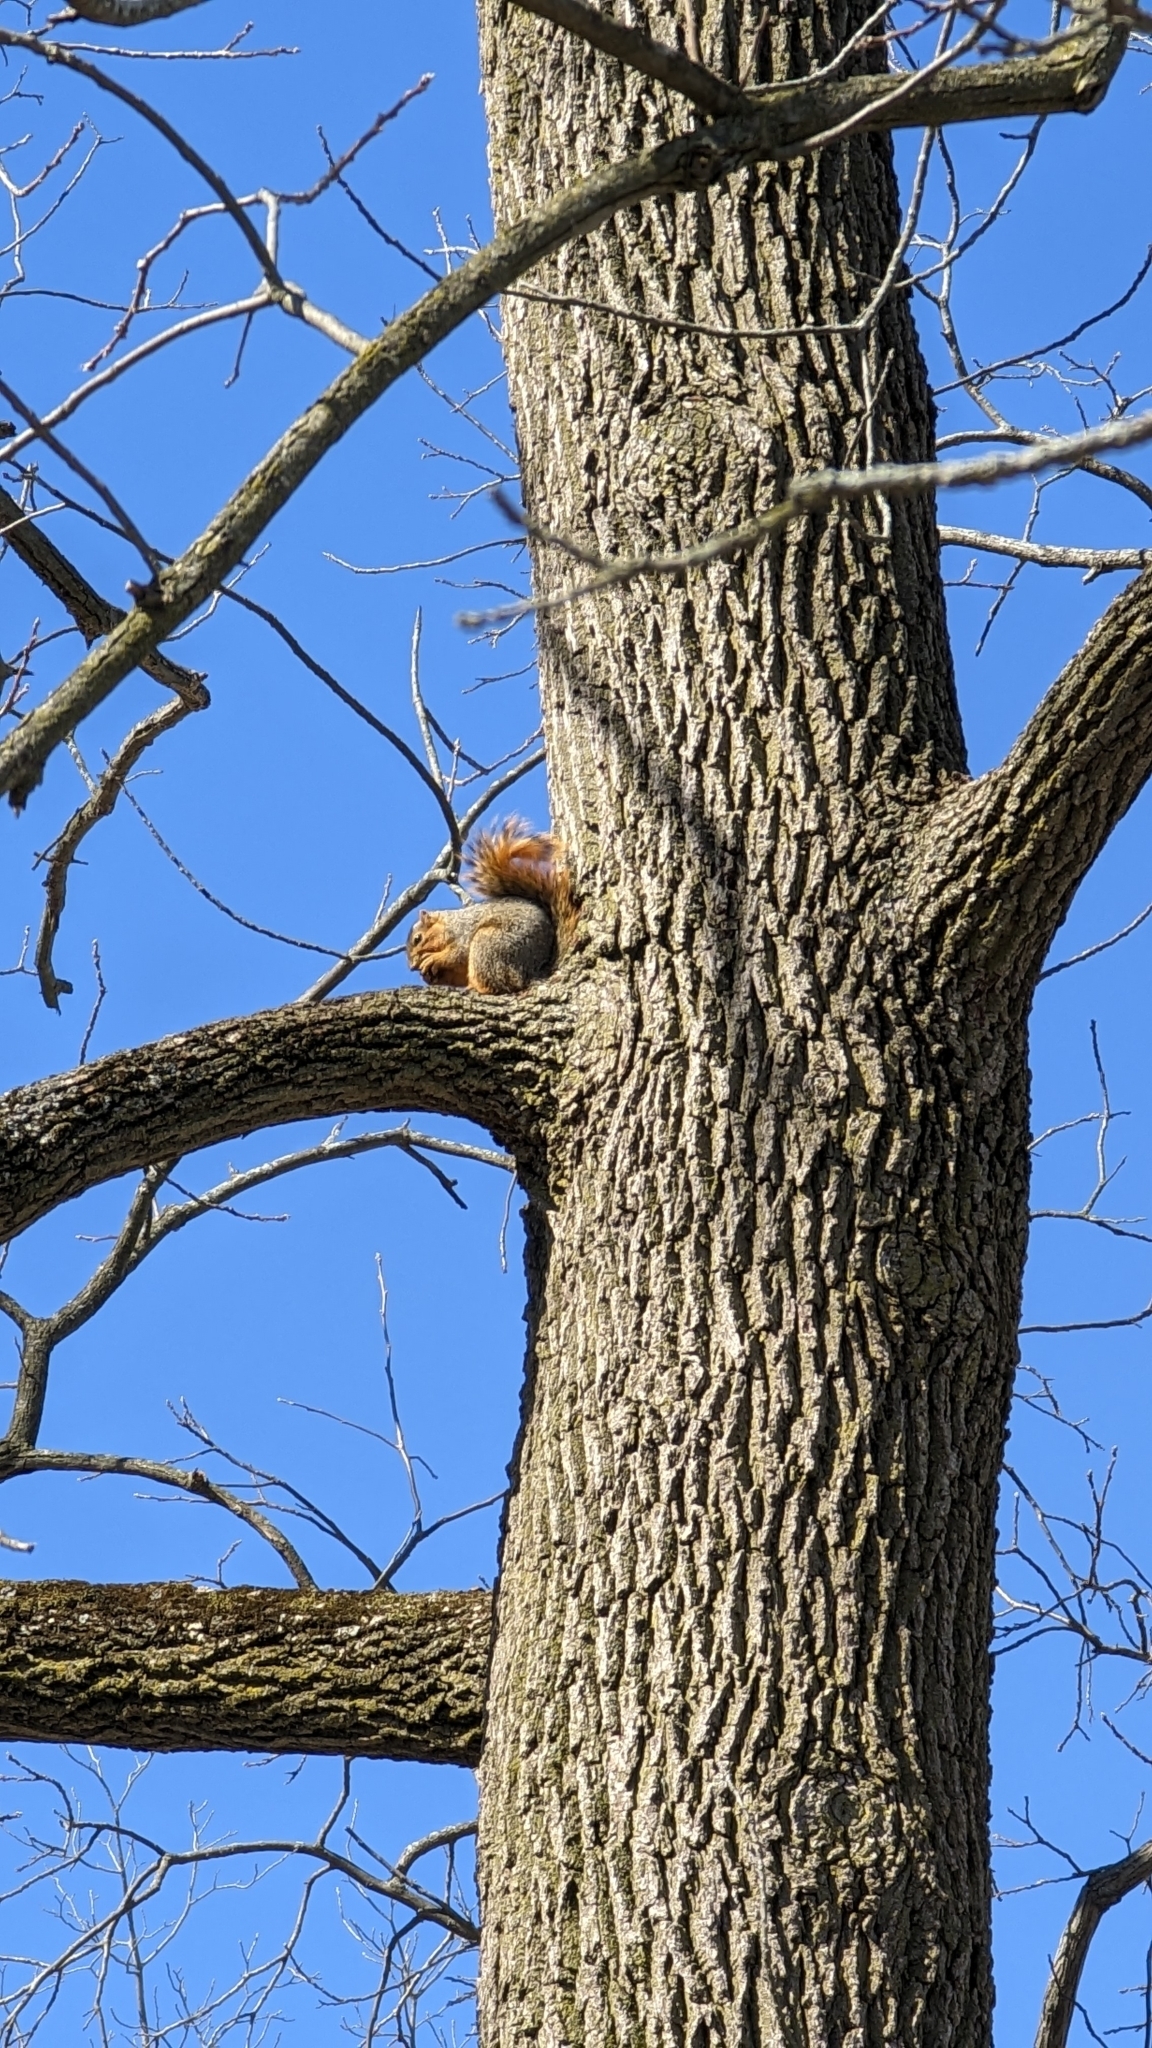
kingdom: Animalia
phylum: Chordata
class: Mammalia
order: Rodentia
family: Sciuridae
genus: Sciurus
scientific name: Sciurus niger
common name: Fox squirrel
